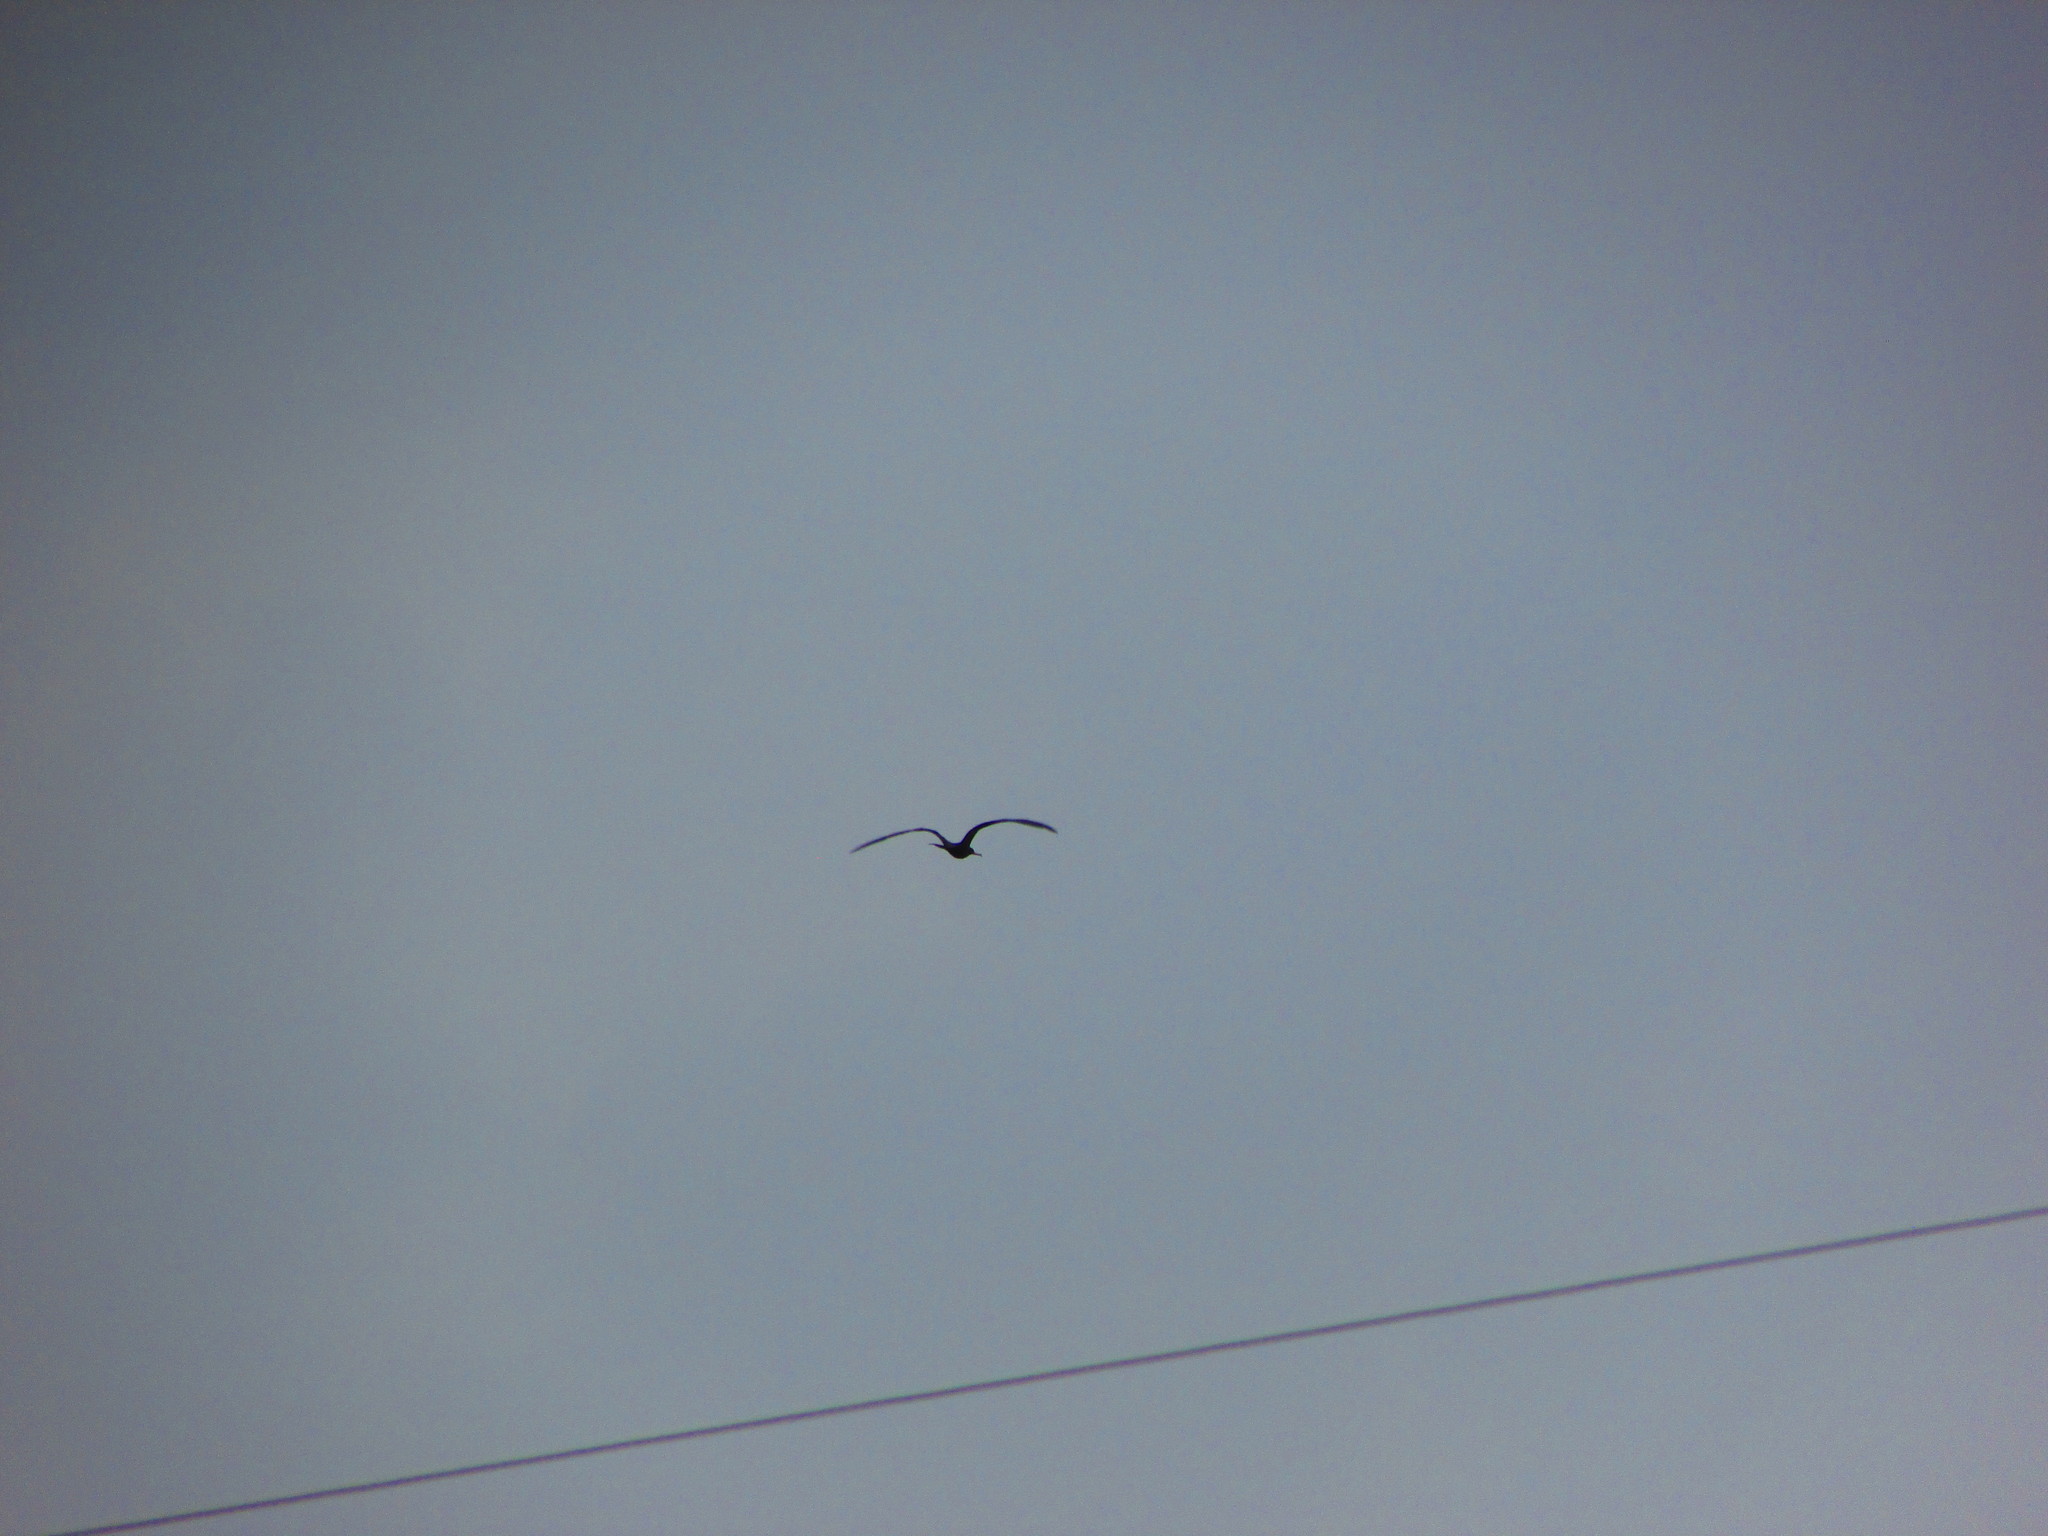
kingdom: Animalia
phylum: Chordata
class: Aves
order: Suliformes
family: Fregatidae
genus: Fregata
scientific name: Fregata magnificens
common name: Magnificent frigatebird
